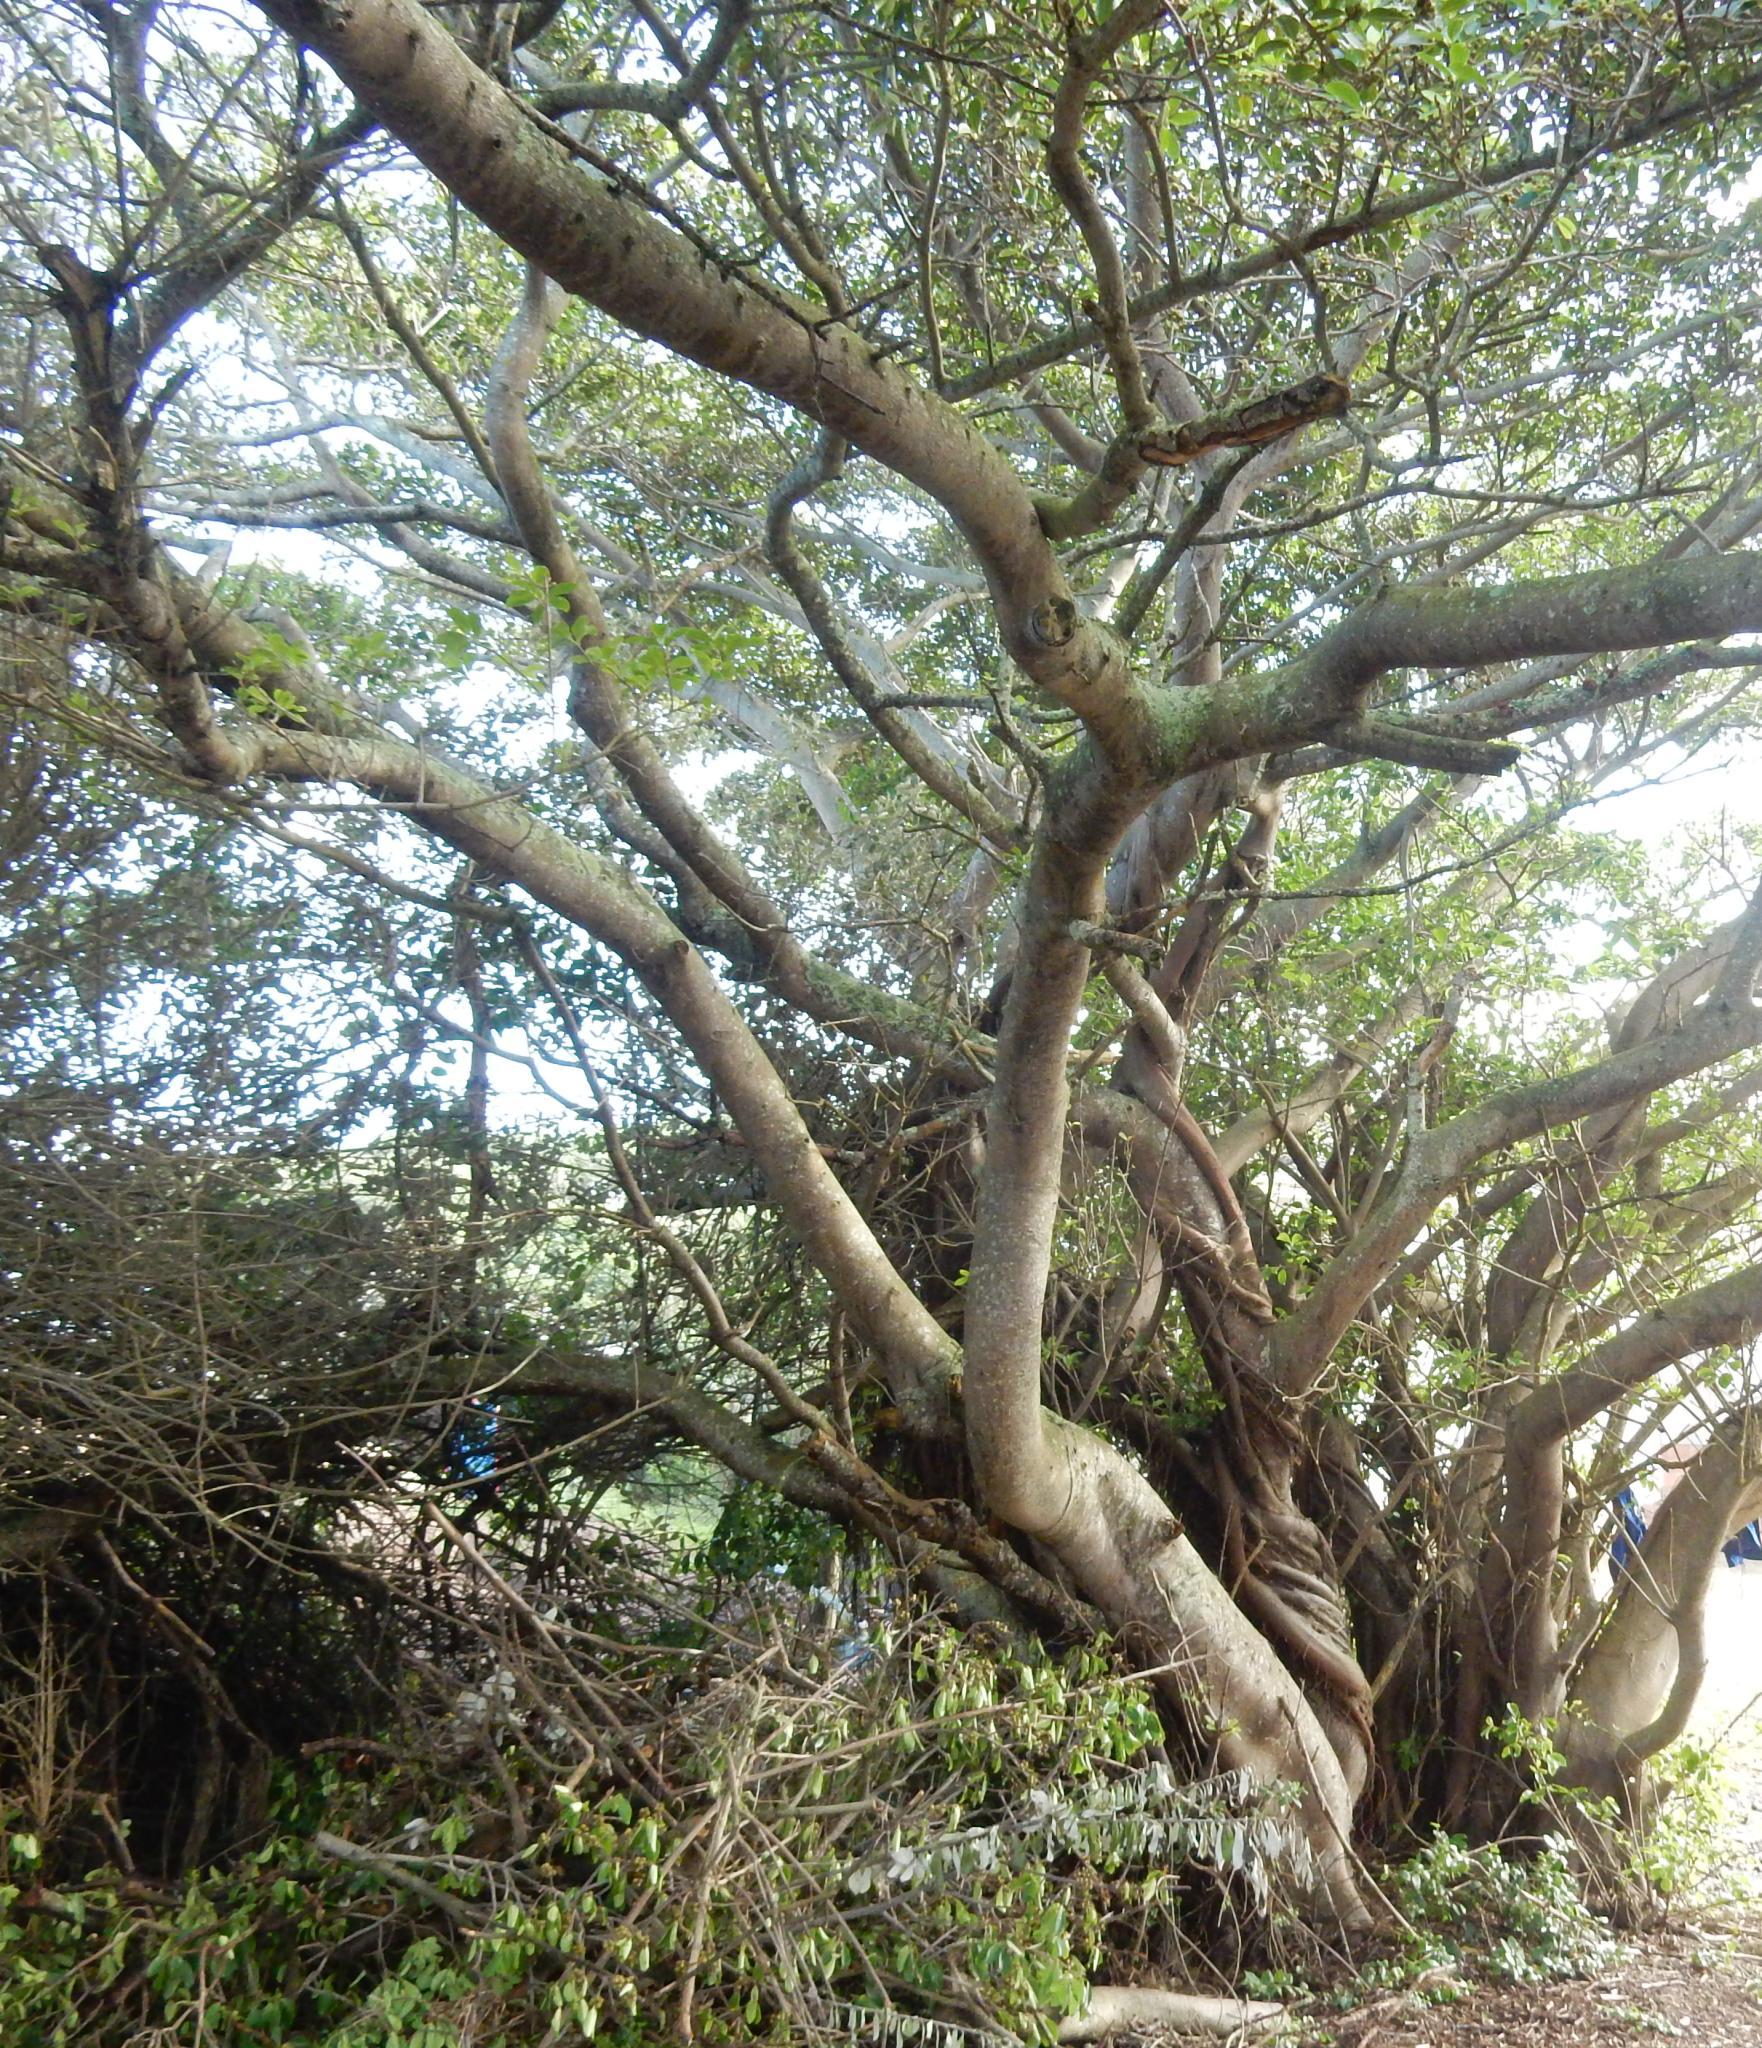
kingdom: Plantae
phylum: Tracheophyta
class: Magnoliopsida
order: Rosales
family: Moraceae
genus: Ficus
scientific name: Ficus thonningii
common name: Fig
